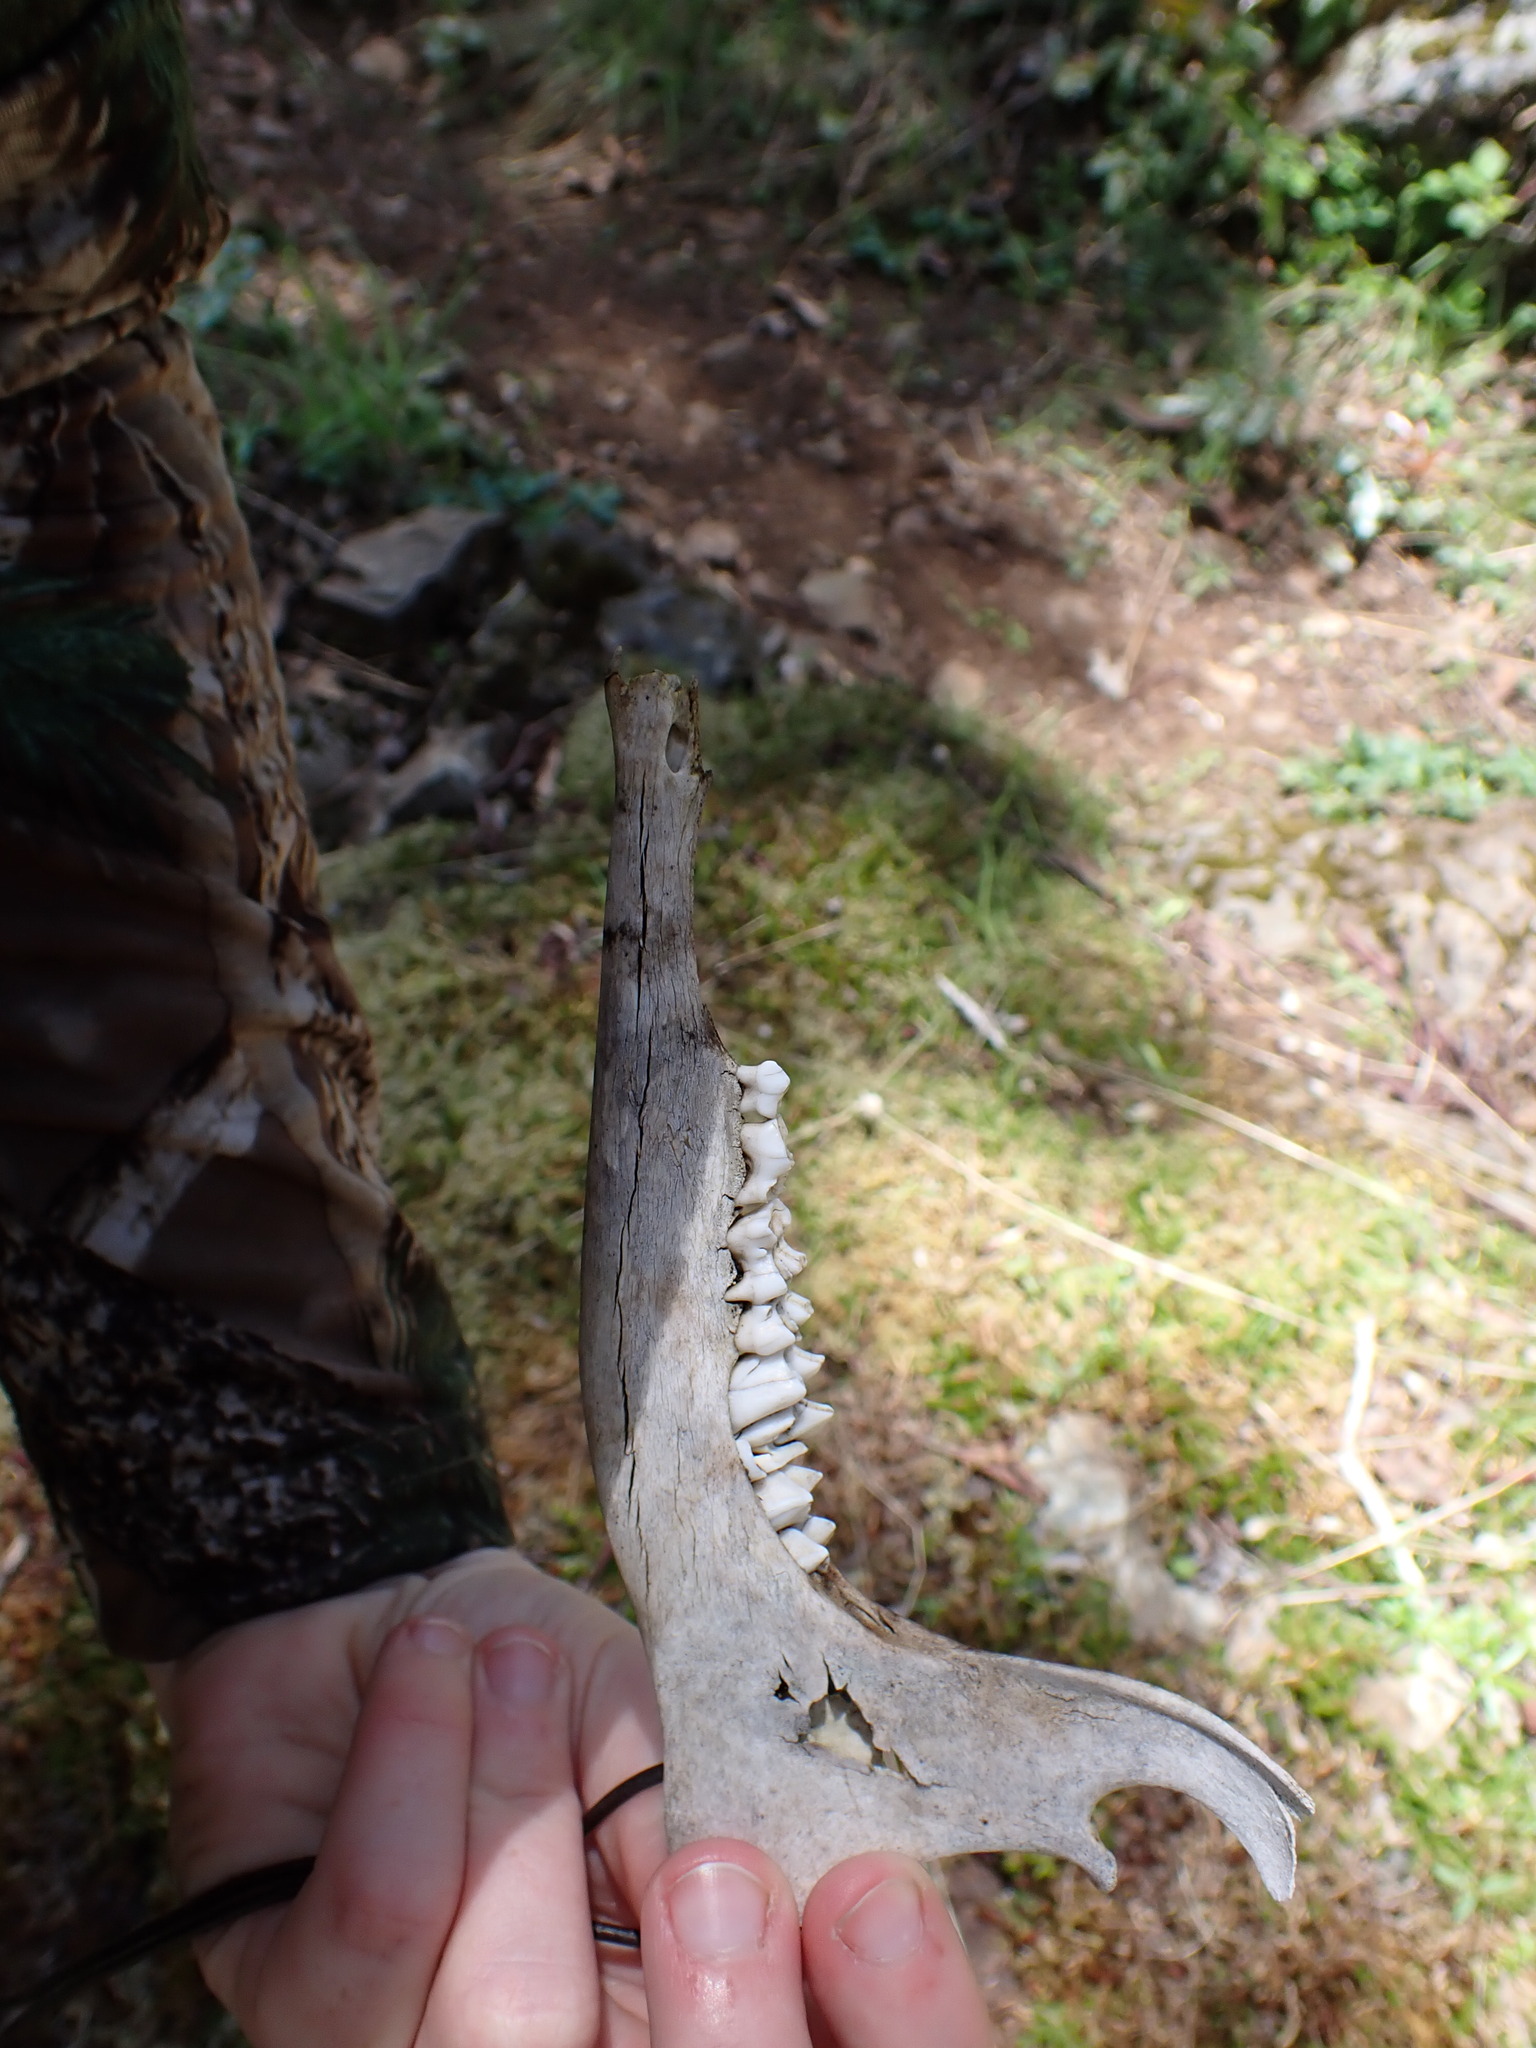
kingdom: Animalia
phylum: Chordata
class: Mammalia
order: Artiodactyla
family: Cervidae
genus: Odocoileus
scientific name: Odocoileus hemionus
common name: Mule deer
